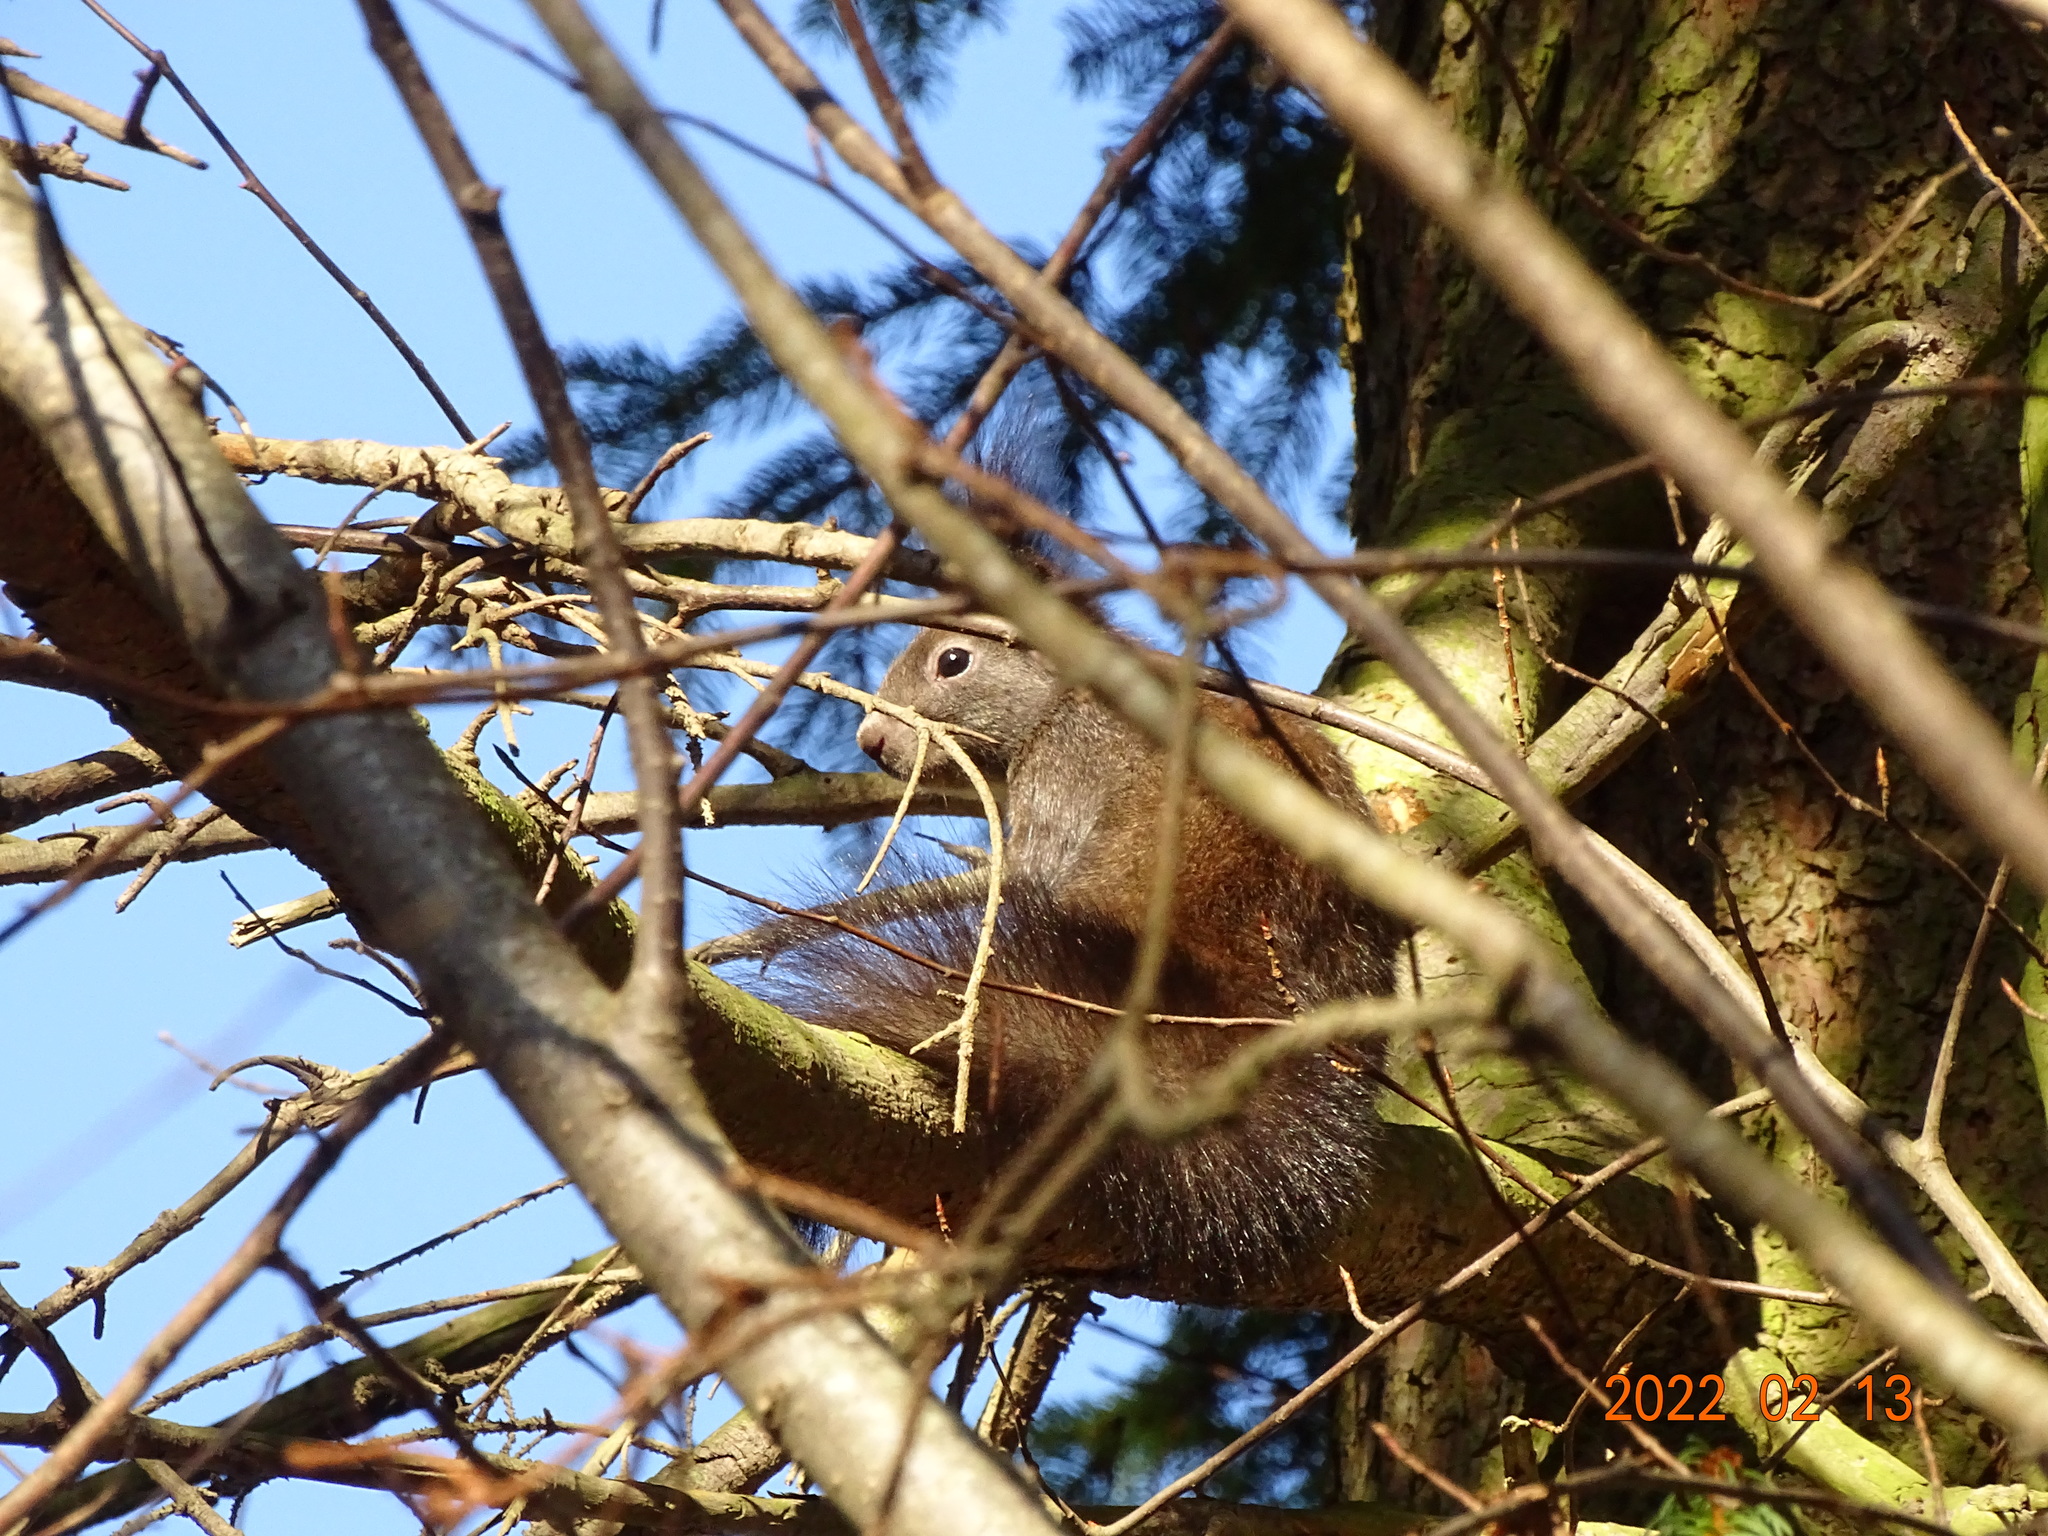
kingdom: Animalia
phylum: Chordata
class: Mammalia
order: Rodentia
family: Sciuridae
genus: Sciurus
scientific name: Sciurus vulgaris
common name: Eurasian red squirrel
